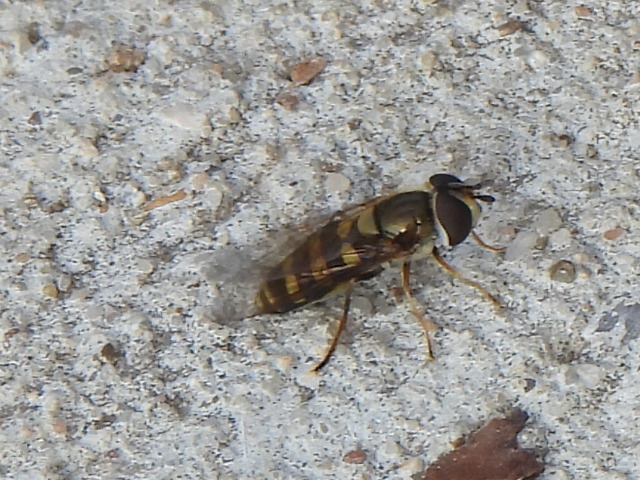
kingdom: Animalia
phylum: Arthropoda
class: Insecta
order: Diptera
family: Syrphidae
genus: Eupeodes
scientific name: Eupeodes
